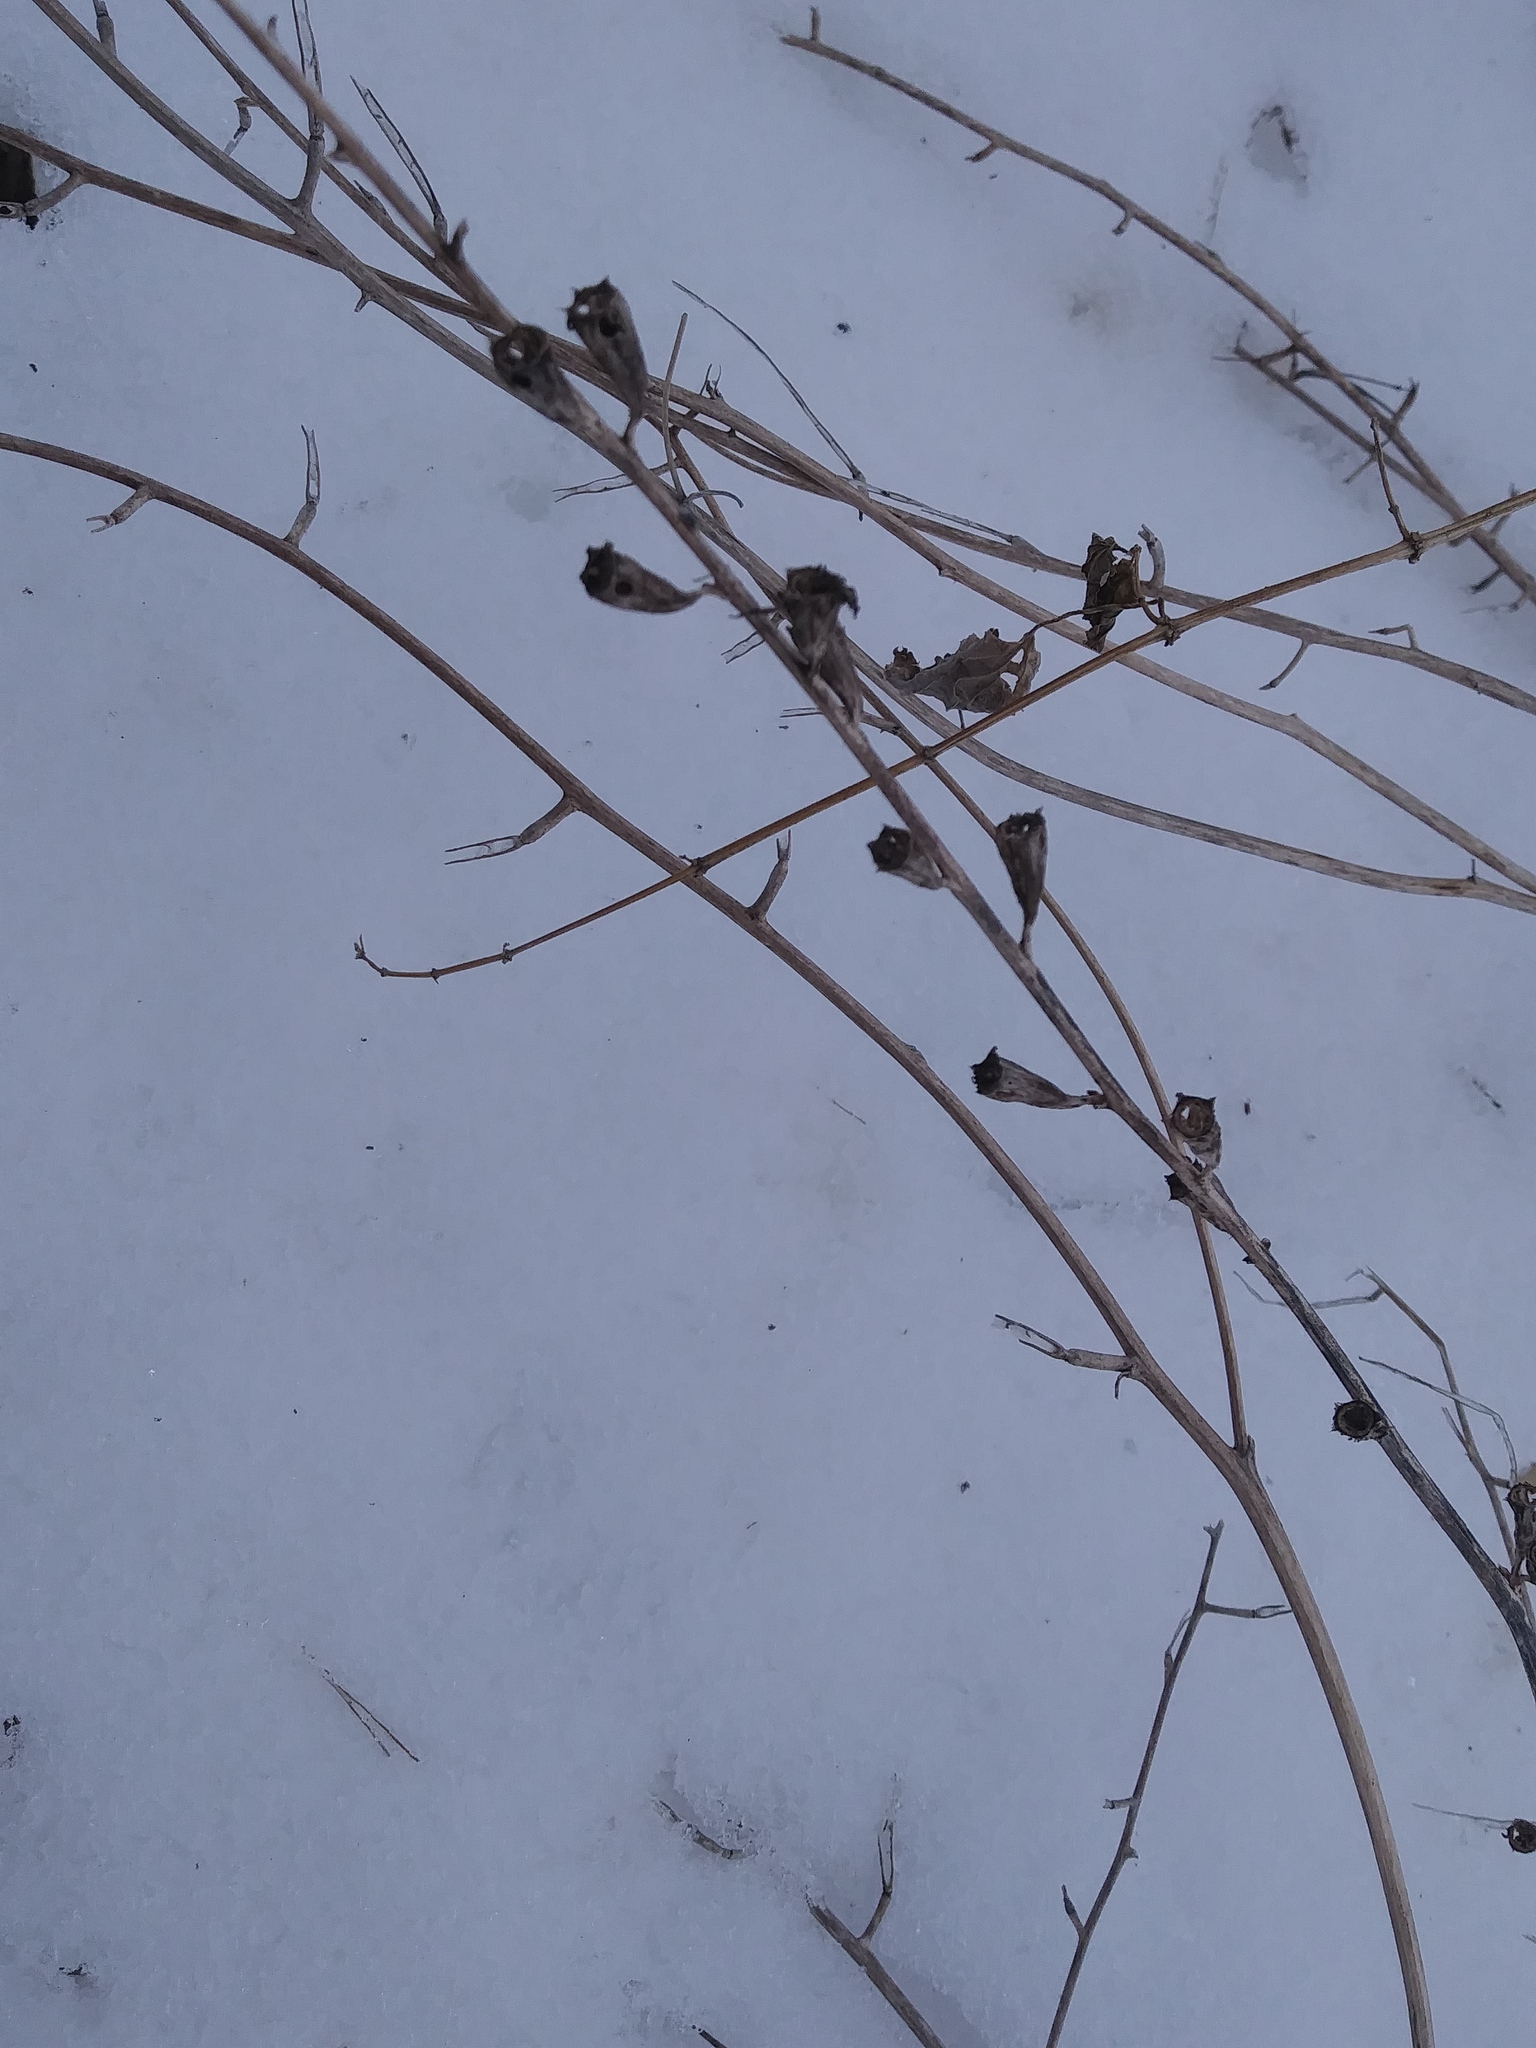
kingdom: Plantae
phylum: Tracheophyta
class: Magnoliopsida
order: Asterales
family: Campanulaceae
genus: Campanulastrum
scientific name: Campanulastrum americanum
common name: American bellflower
